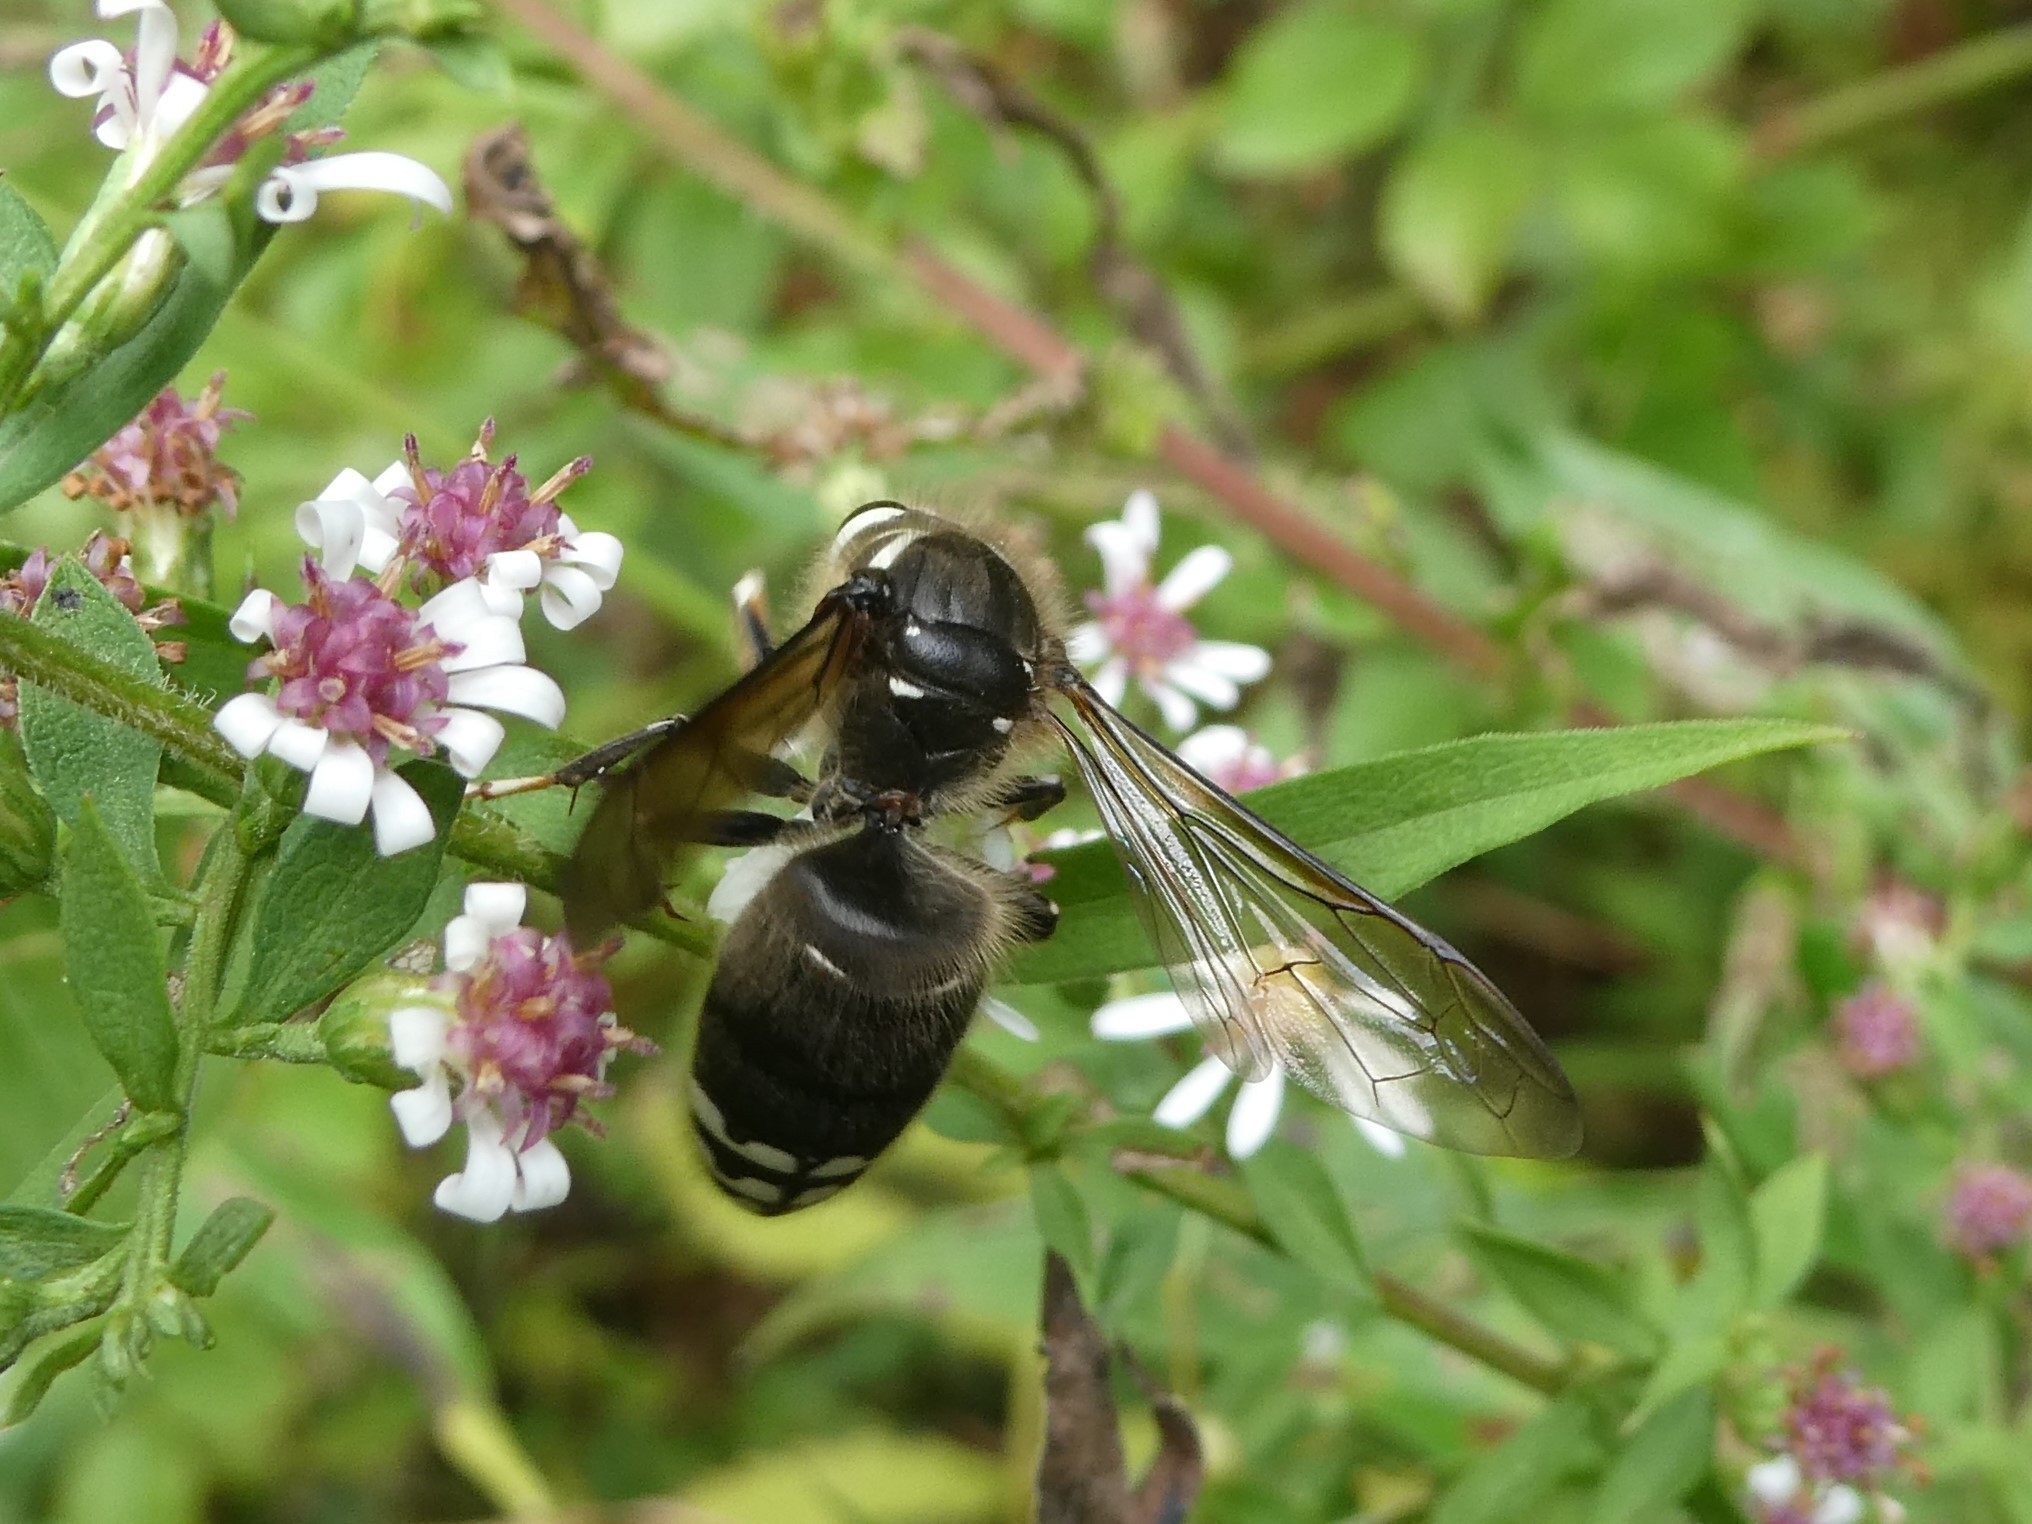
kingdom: Animalia
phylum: Arthropoda
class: Insecta
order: Hymenoptera
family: Vespidae
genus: Dolichovespula
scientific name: Dolichovespula maculata
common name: Bald-faced hornet
